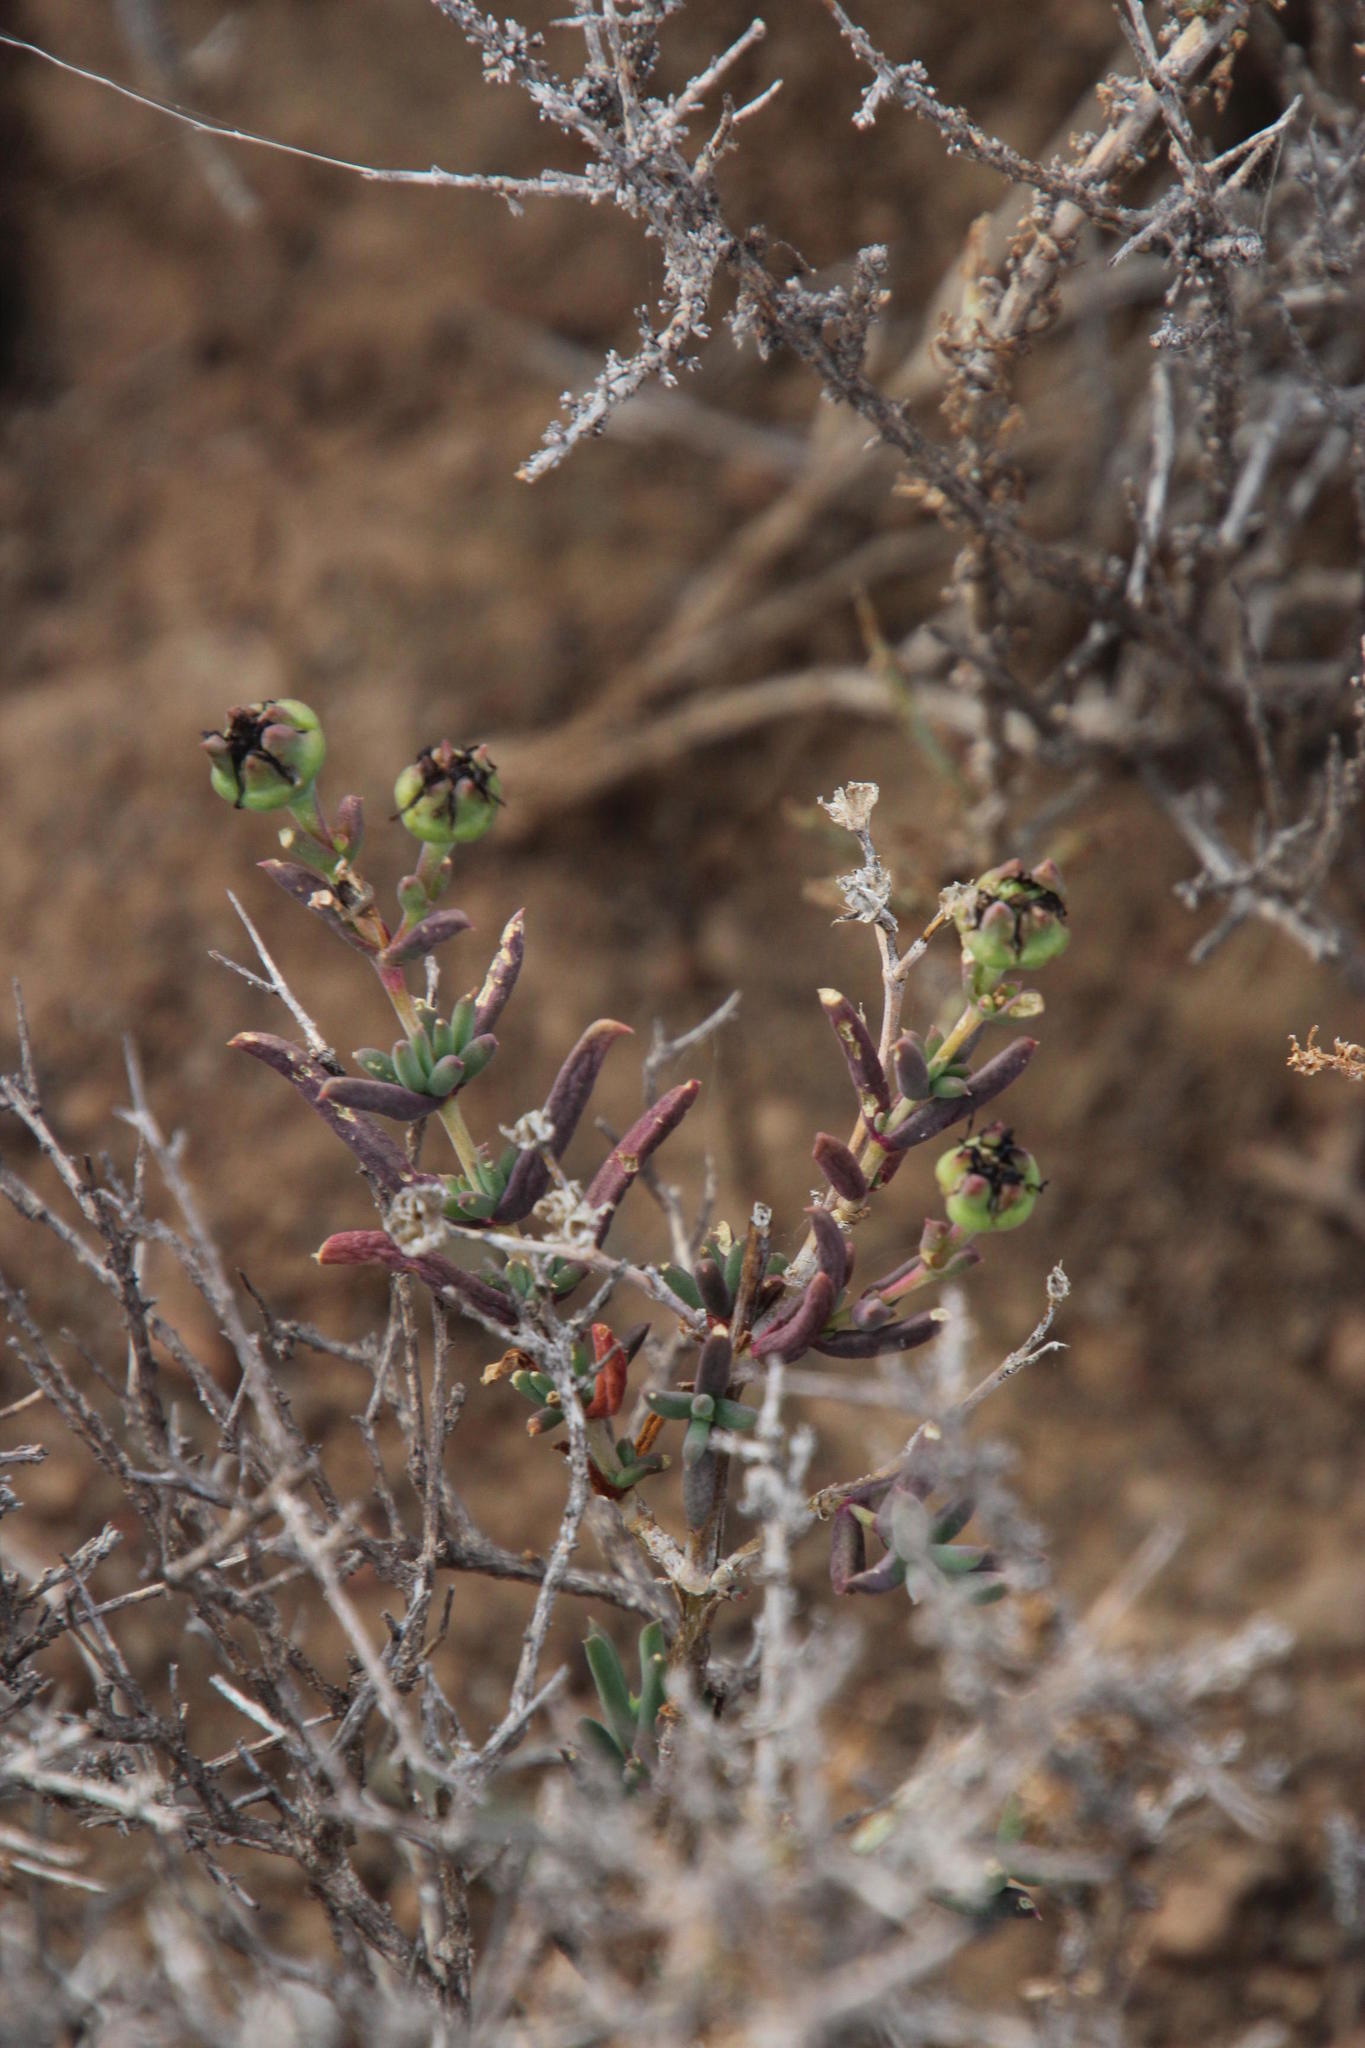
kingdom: Plantae
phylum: Tracheophyta
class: Magnoliopsida
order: Caryophyllales
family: Aizoaceae
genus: Delosperma
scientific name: Delosperma multiflorum
